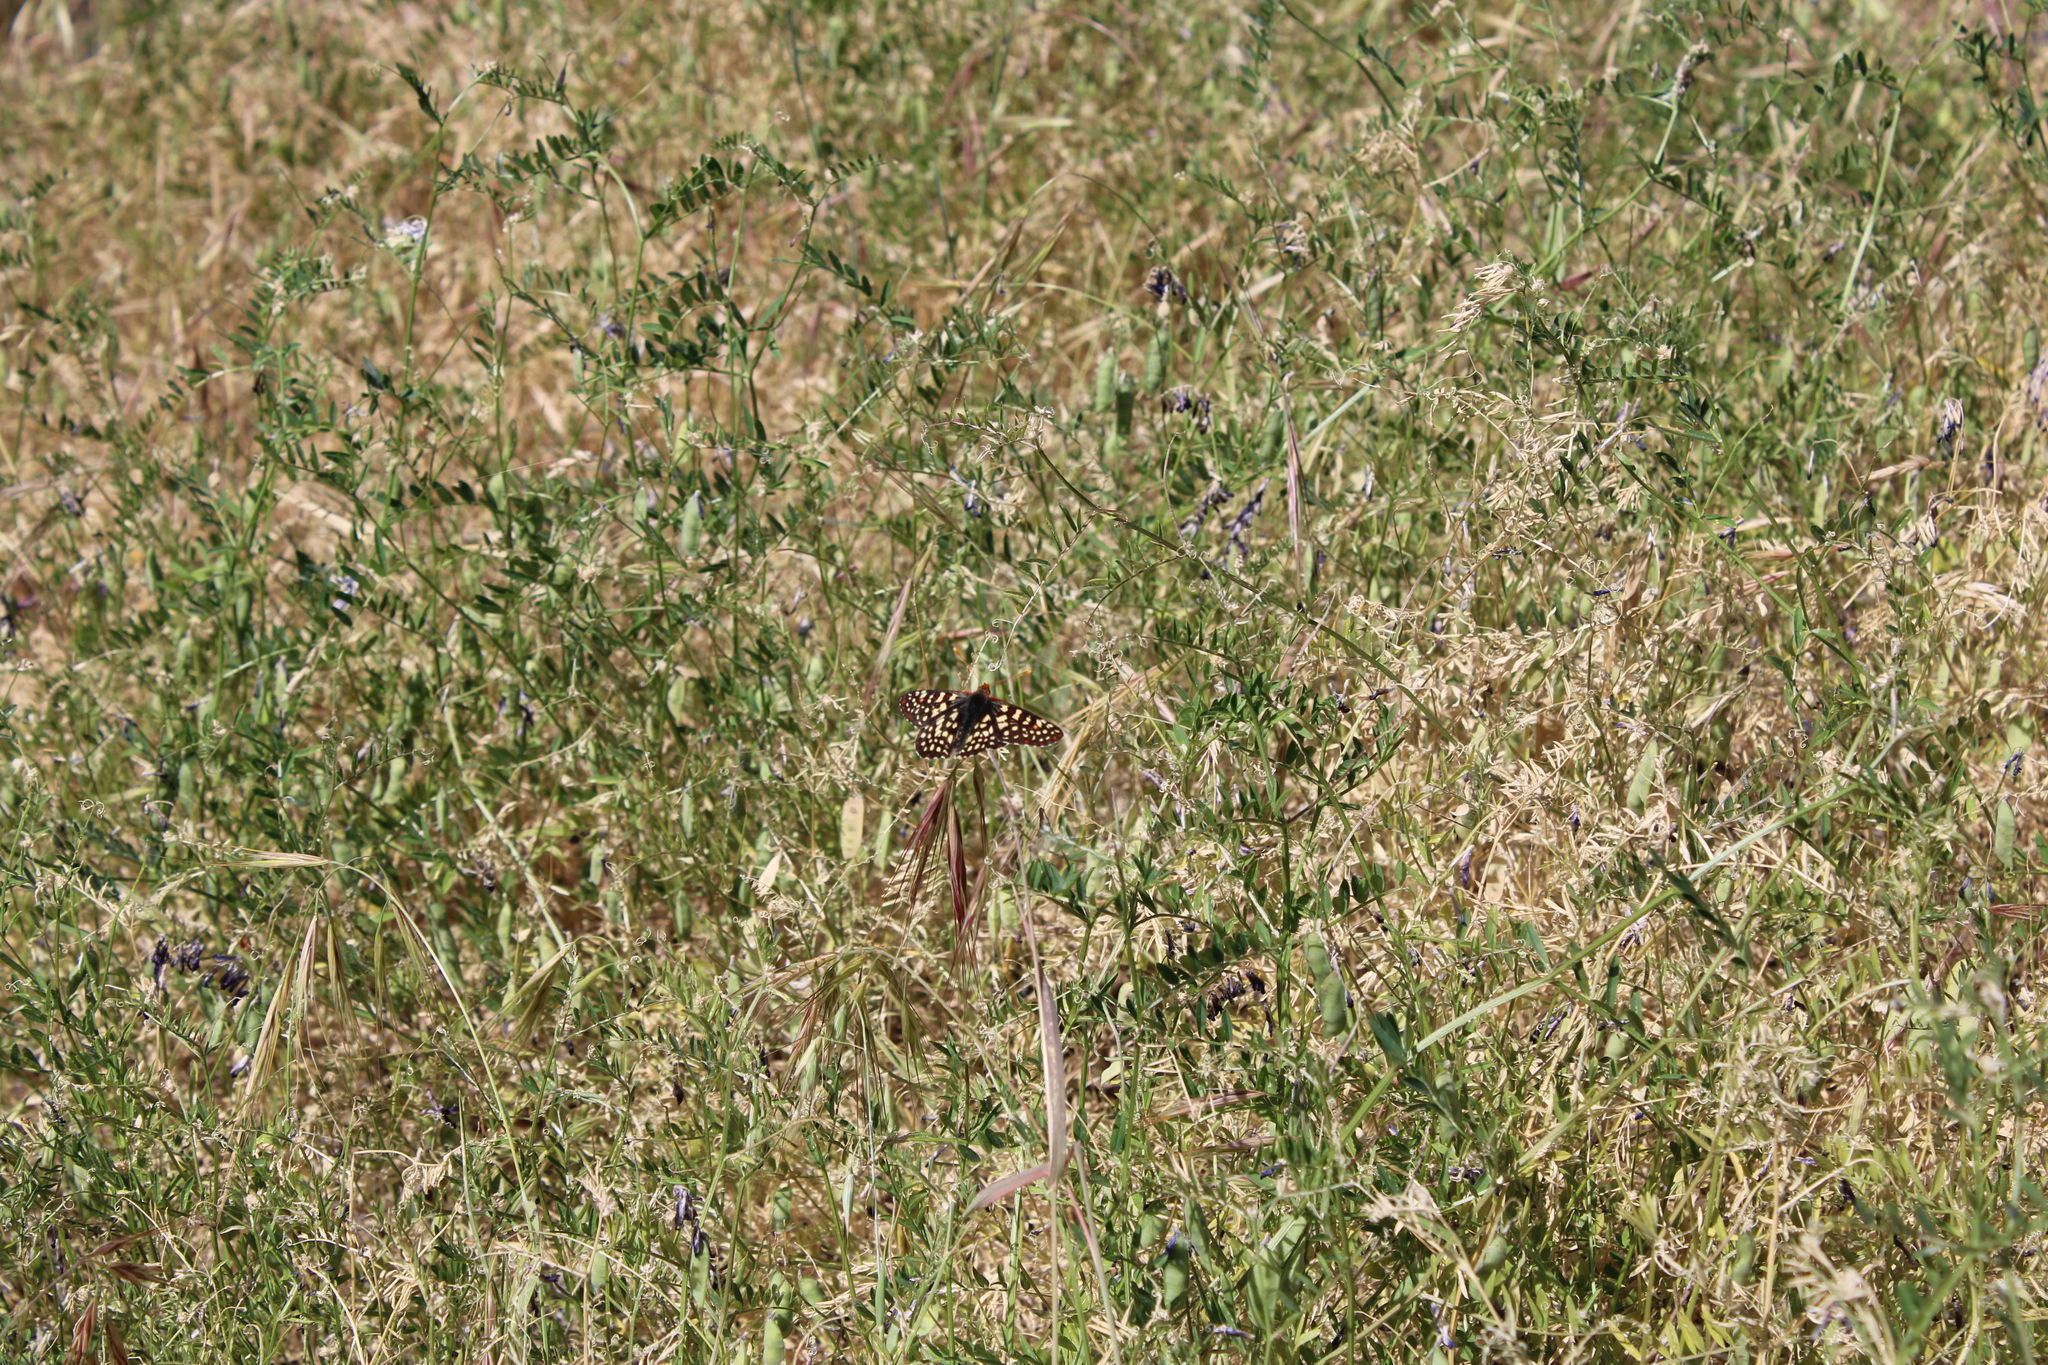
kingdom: Animalia
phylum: Arthropoda
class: Insecta
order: Lepidoptera
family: Nymphalidae
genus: Occidryas
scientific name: Occidryas chalcedona
